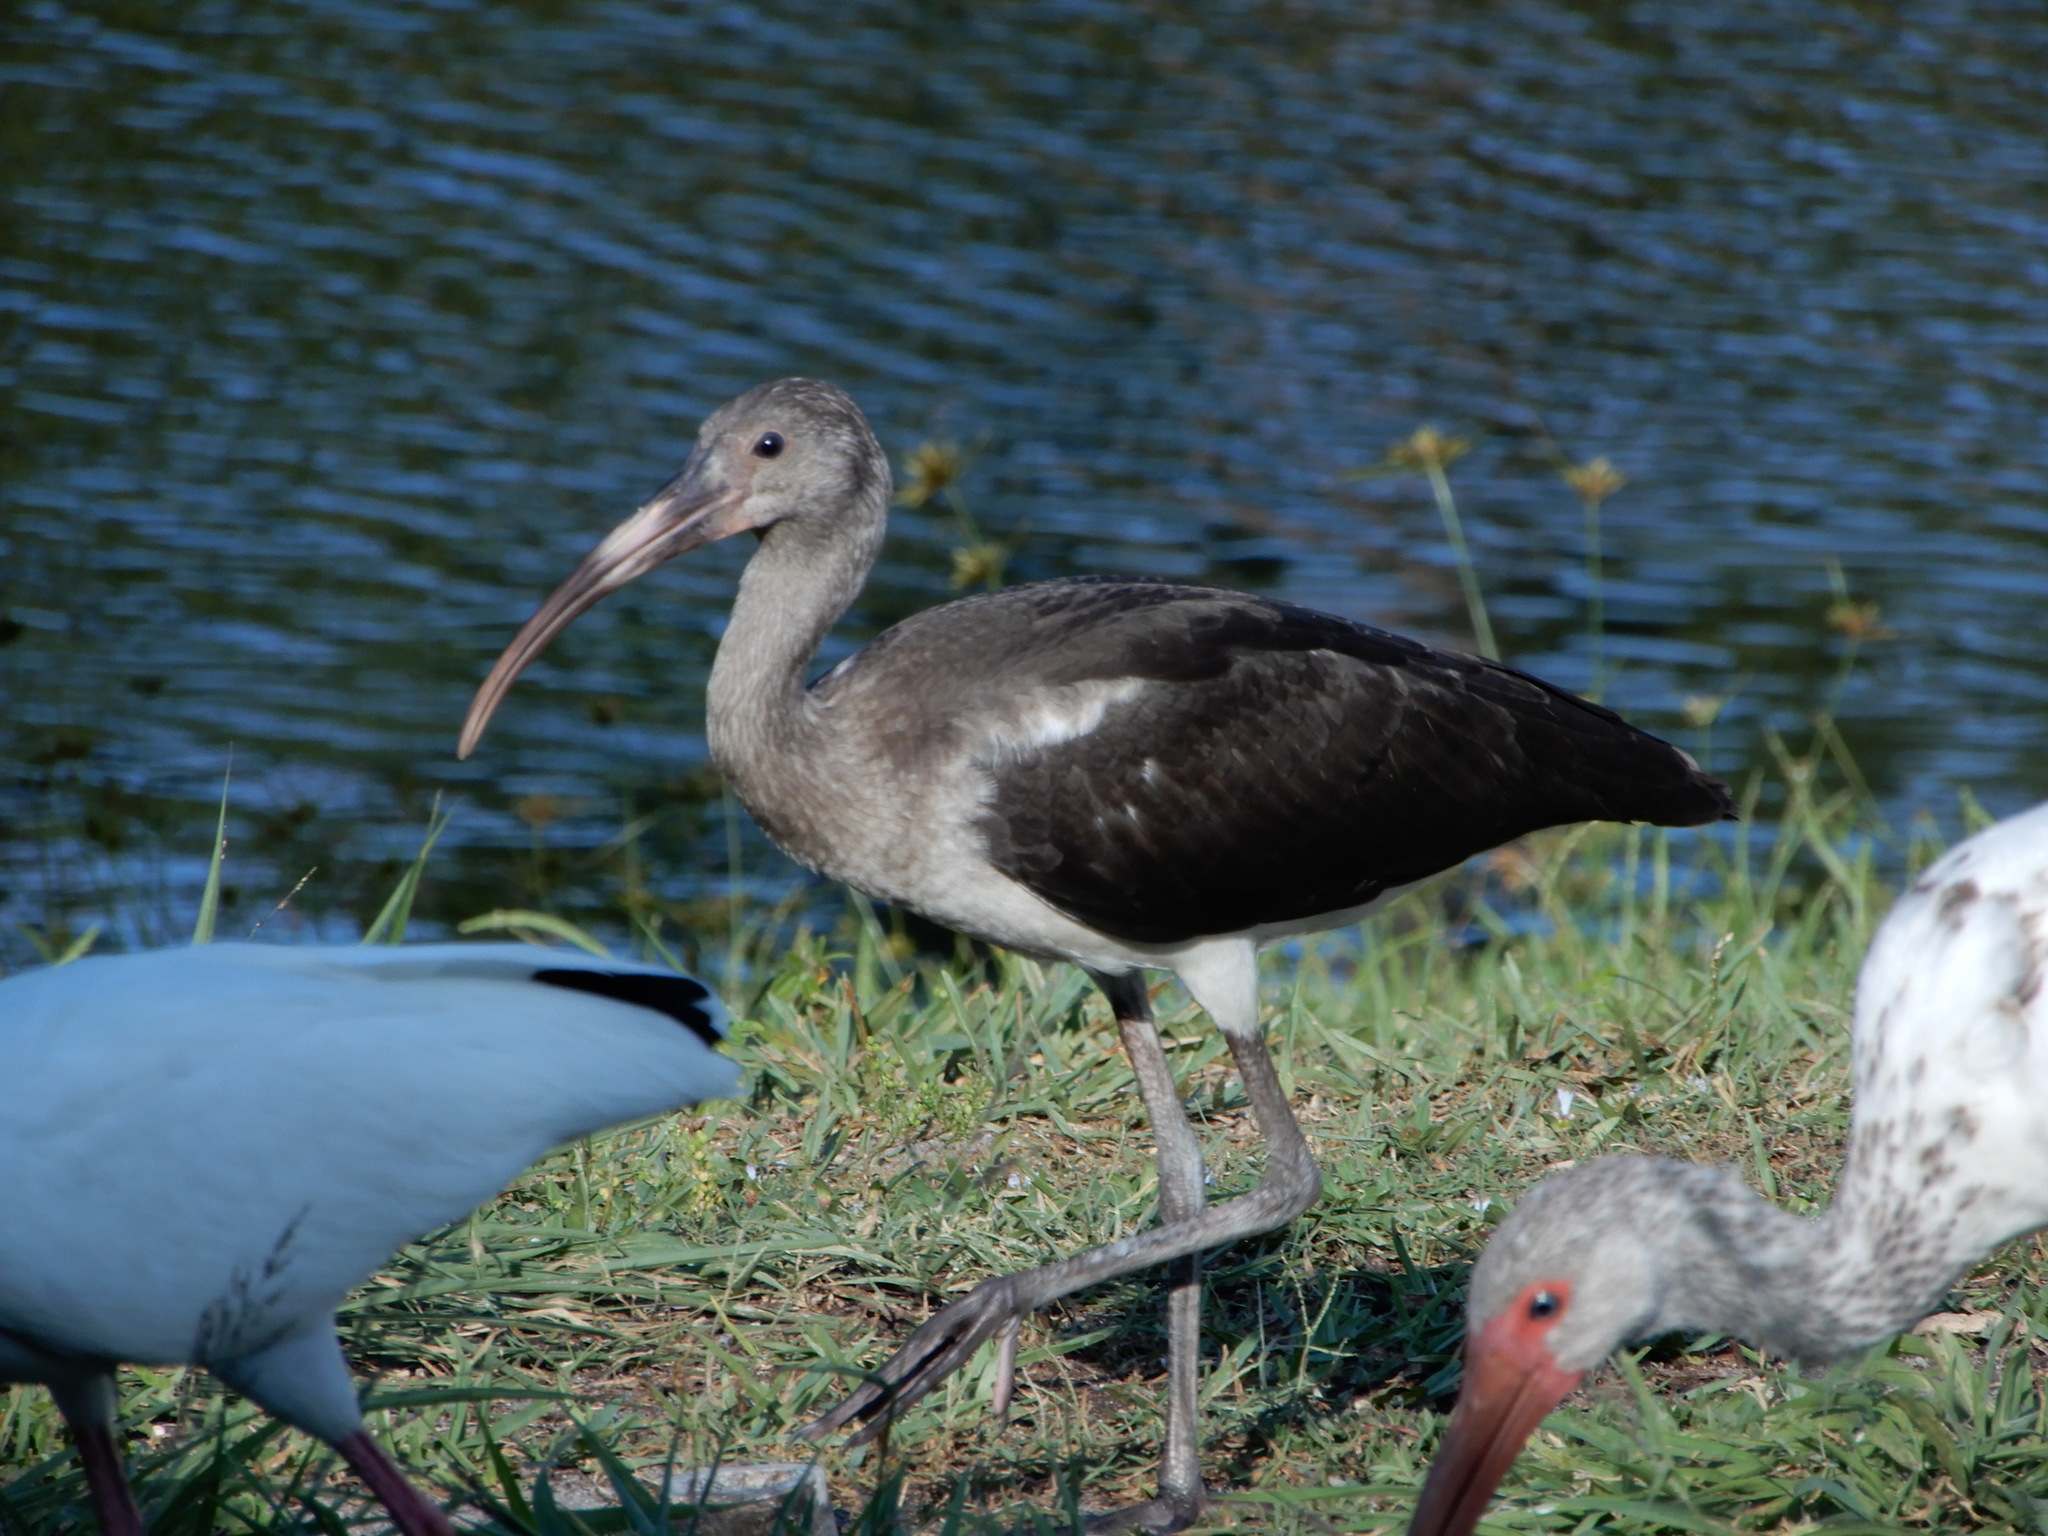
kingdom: Animalia
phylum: Chordata
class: Aves
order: Pelecaniformes
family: Threskiornithidae
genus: Eudocimus
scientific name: Eudocimus albus
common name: White ibis
